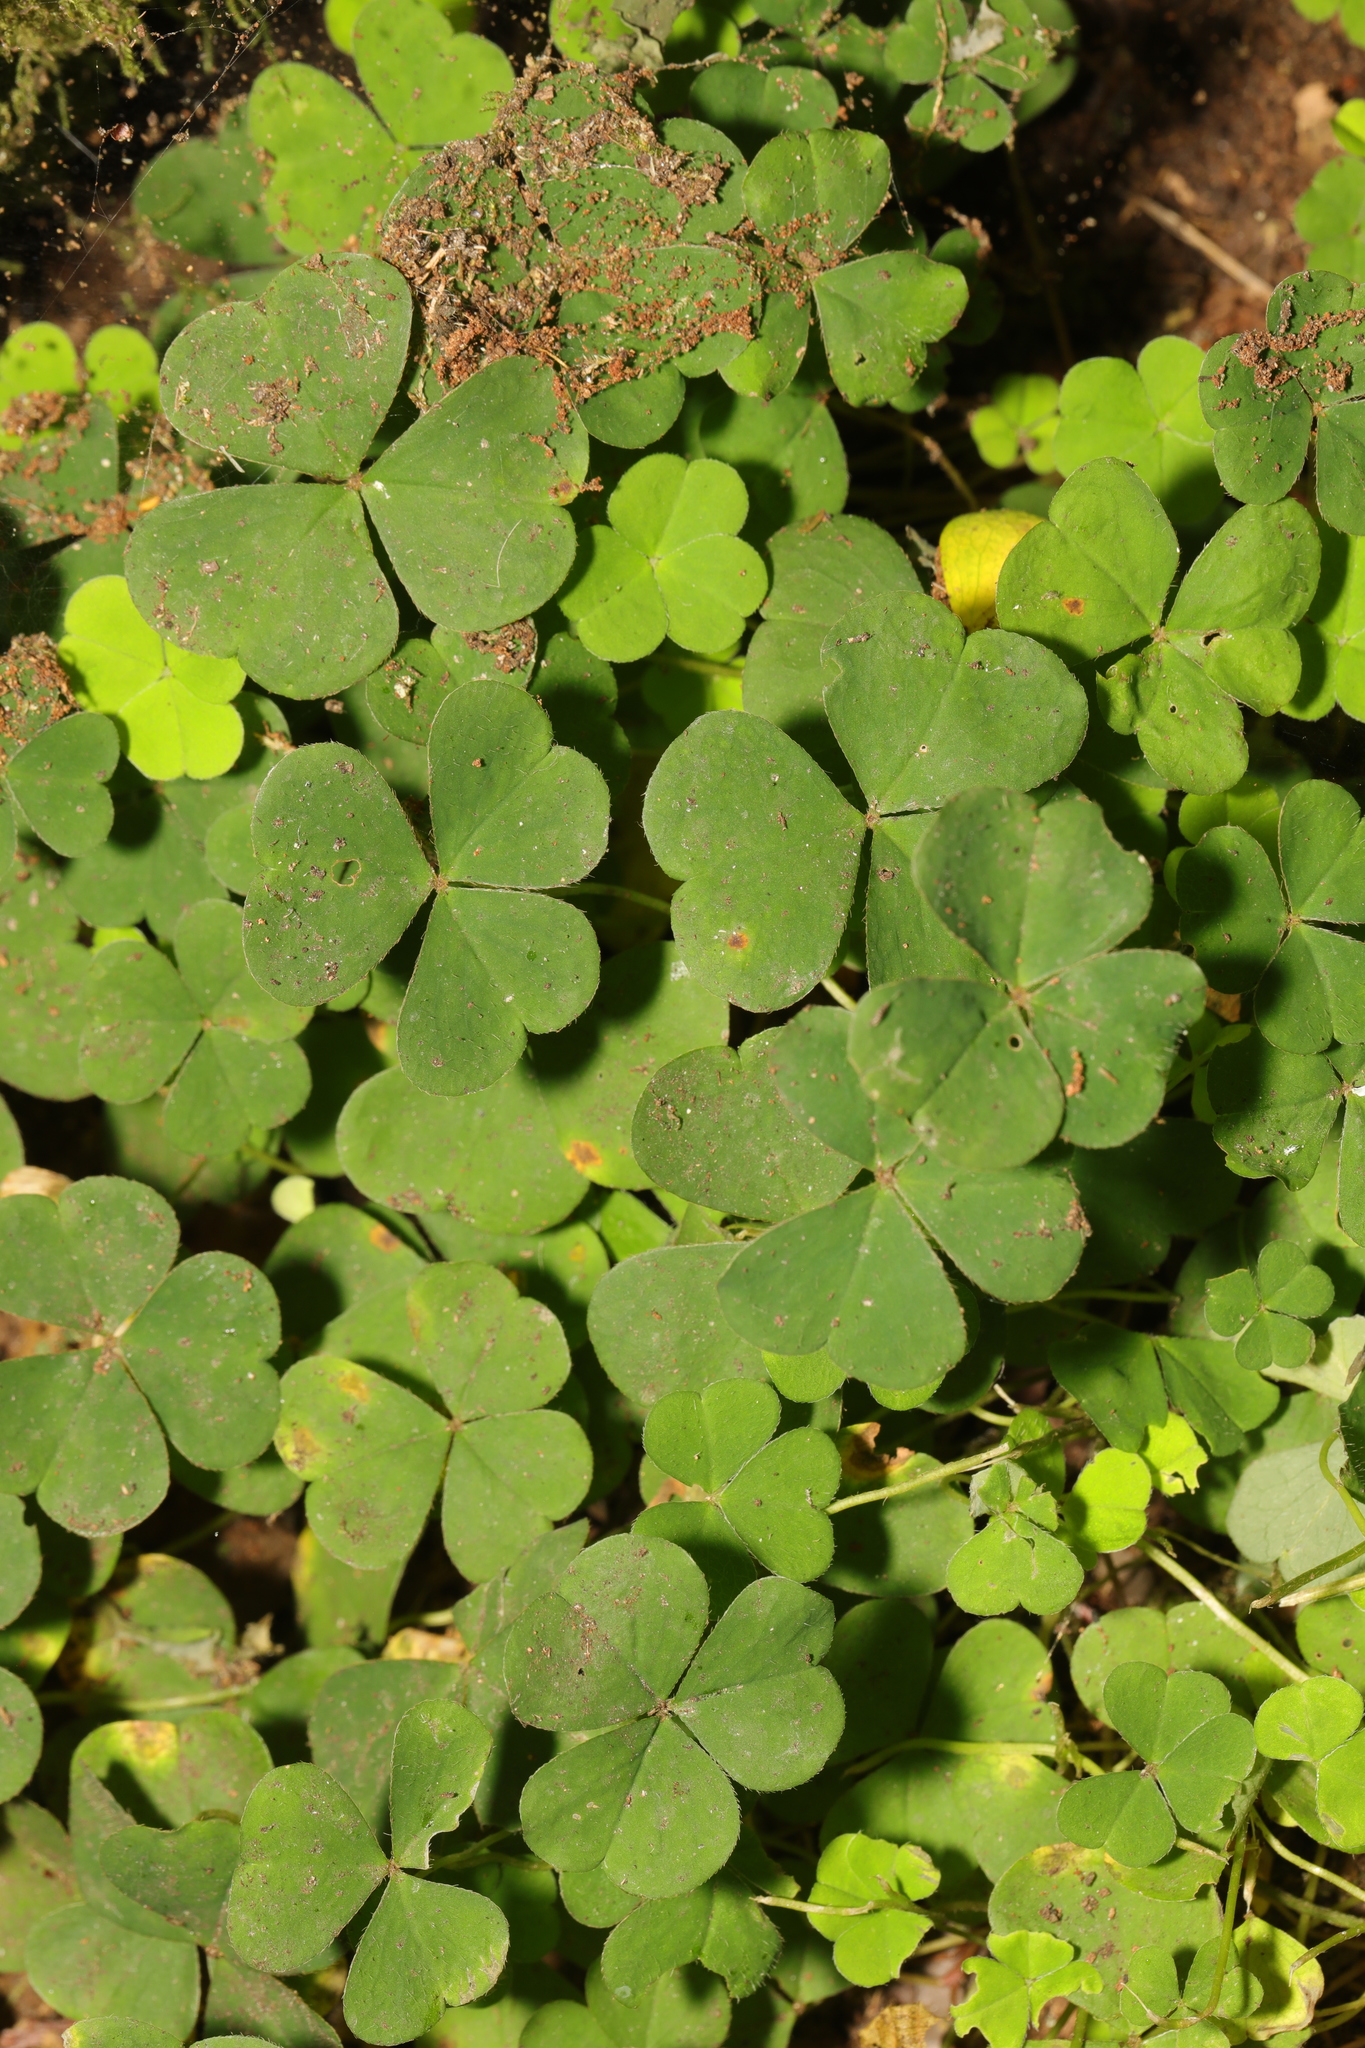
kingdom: Plantae
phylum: Tracheophyta
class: Magnoliopsida
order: Oxalidales
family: Oxalidaceae
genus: Oxalis
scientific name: Oxalis acetosella
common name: Wood-sorrel
